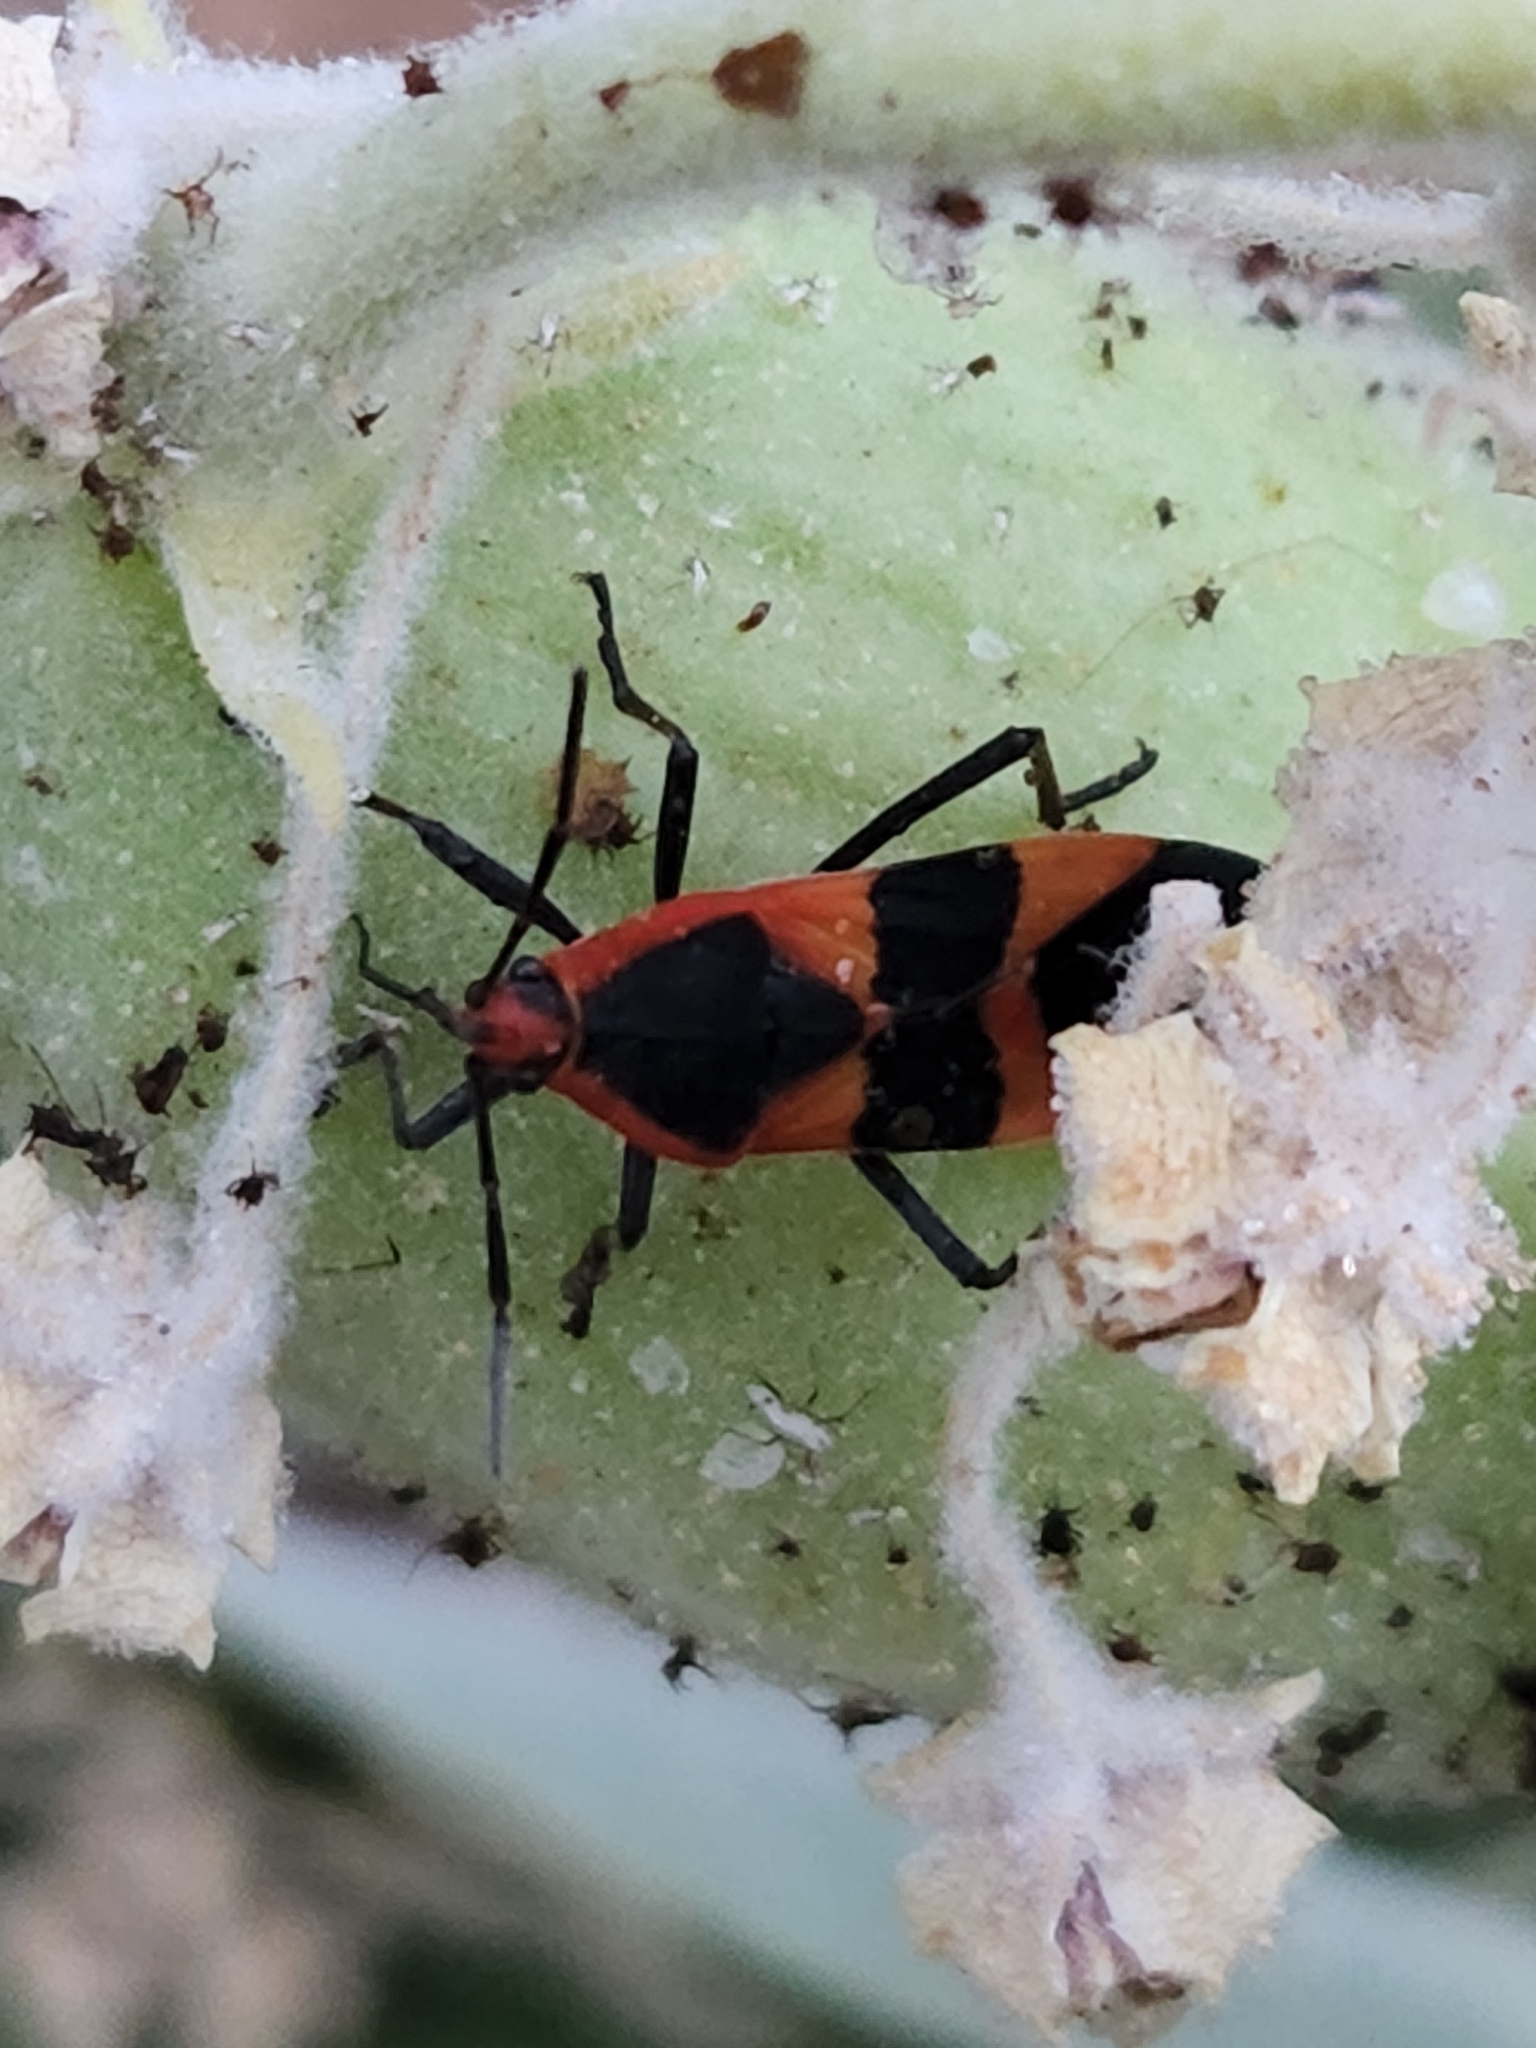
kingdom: Animalia
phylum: Arthropoda
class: Insecta
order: Hemiptera
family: Lygaeidae
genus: Oncopeltus
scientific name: Oncopeltus fasciatus
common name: Large milkweed bug
